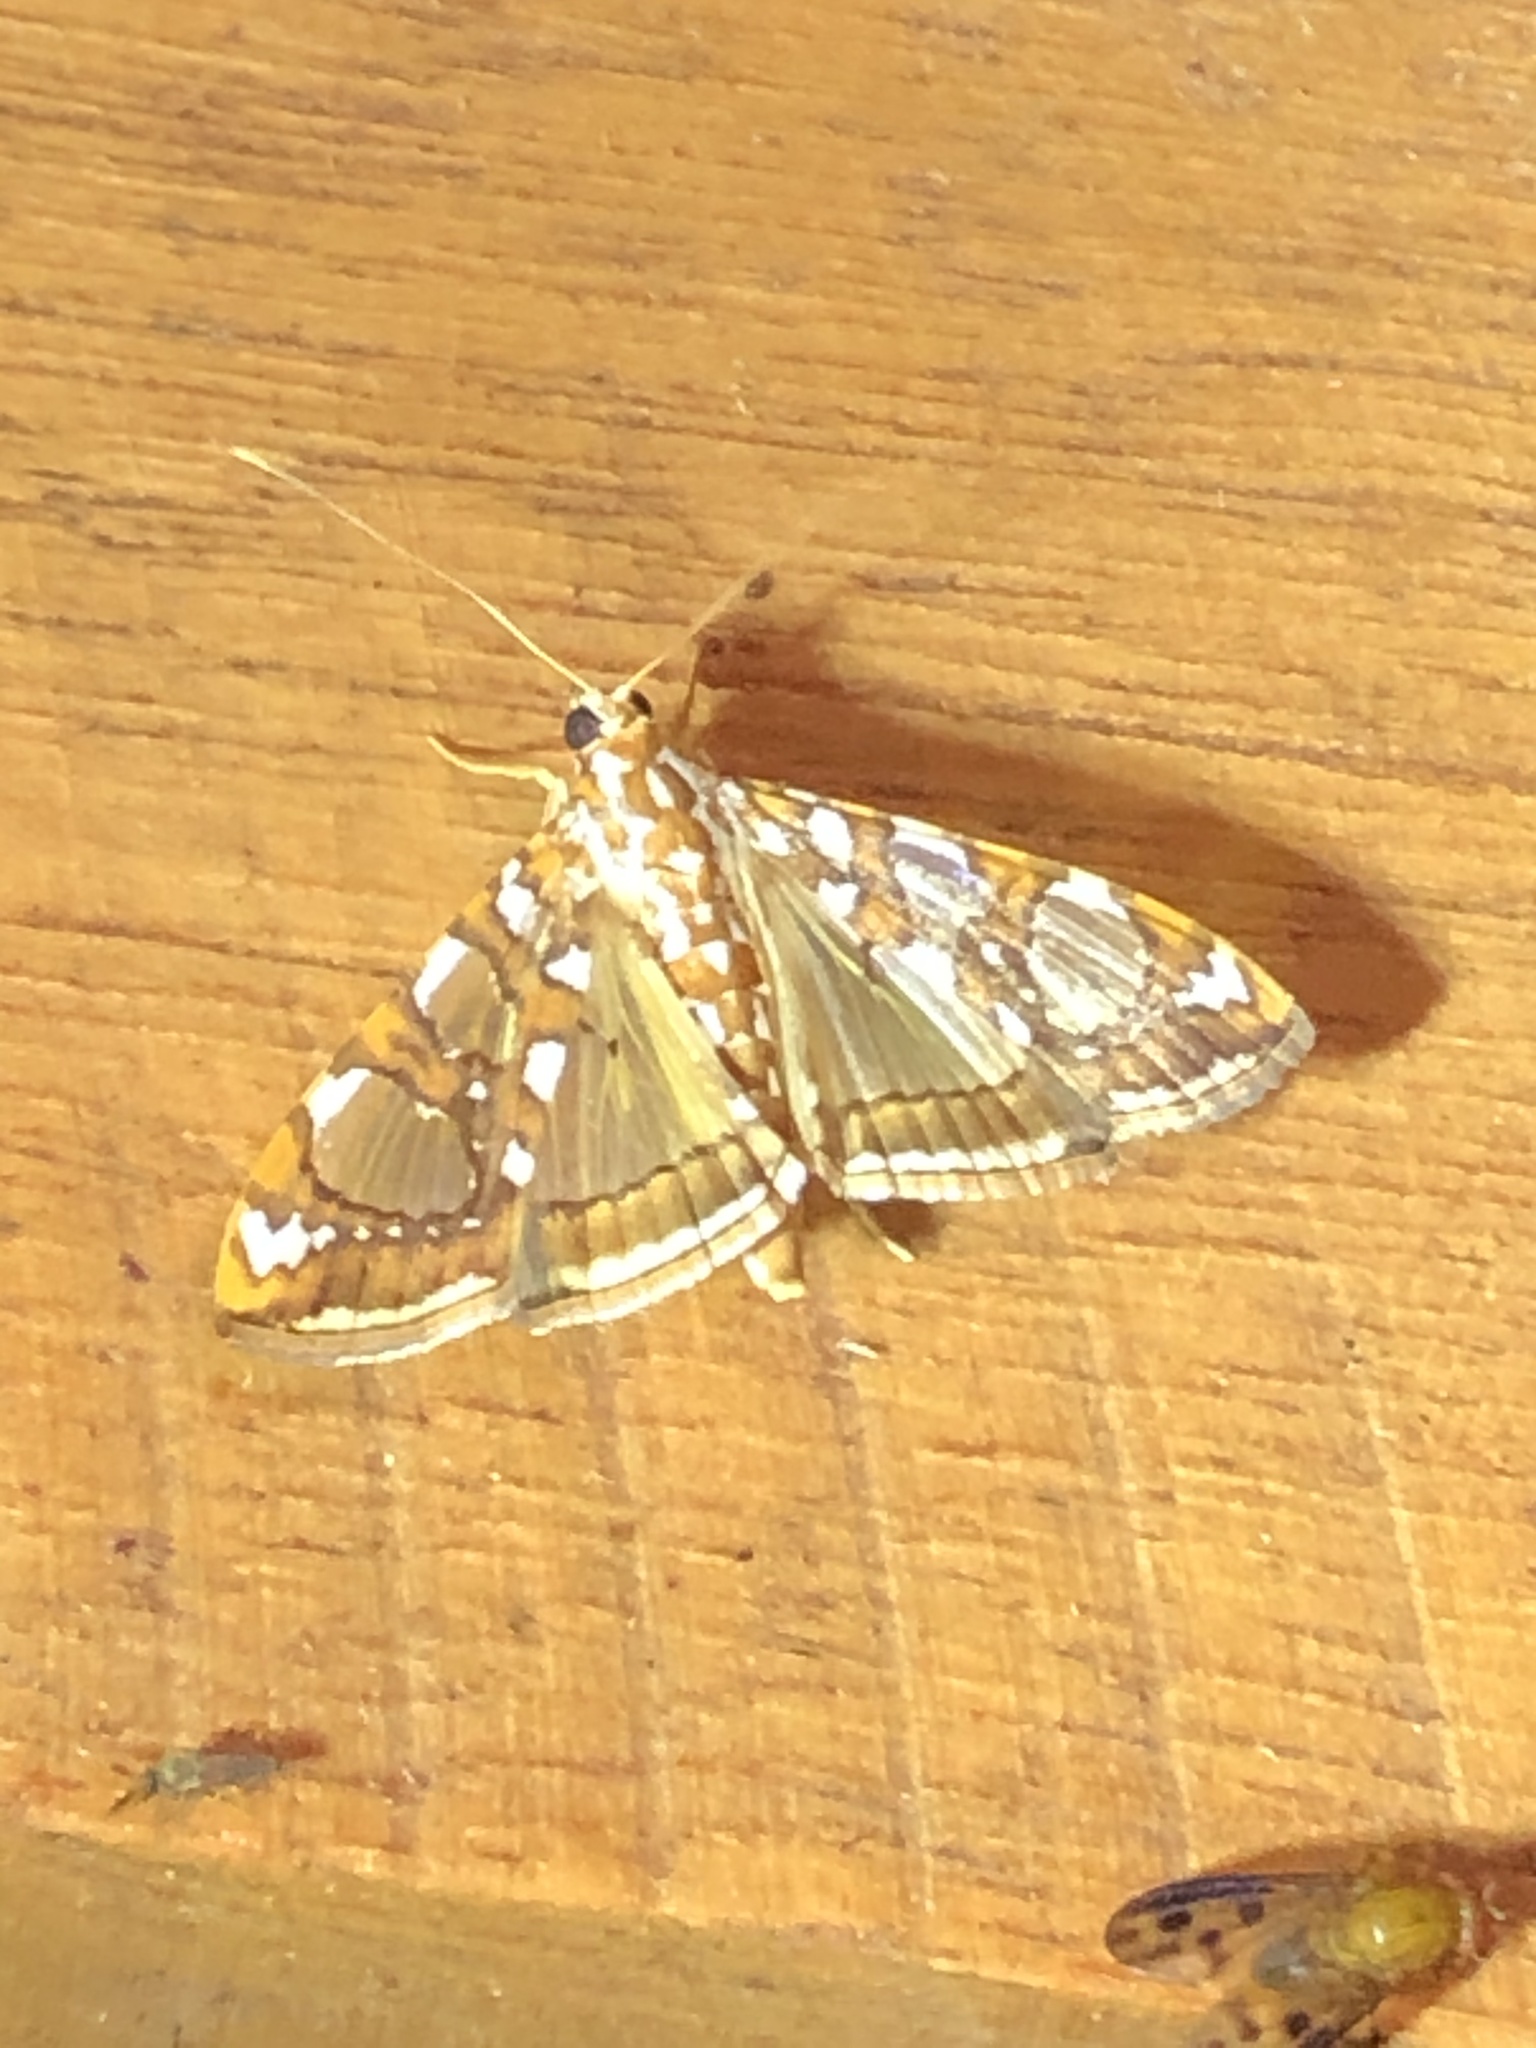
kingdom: Animalia
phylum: Arthropoda
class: Insecta
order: Lepidoptera
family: Crambidae
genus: Glyphodes
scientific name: Glyphodes sibillalis
